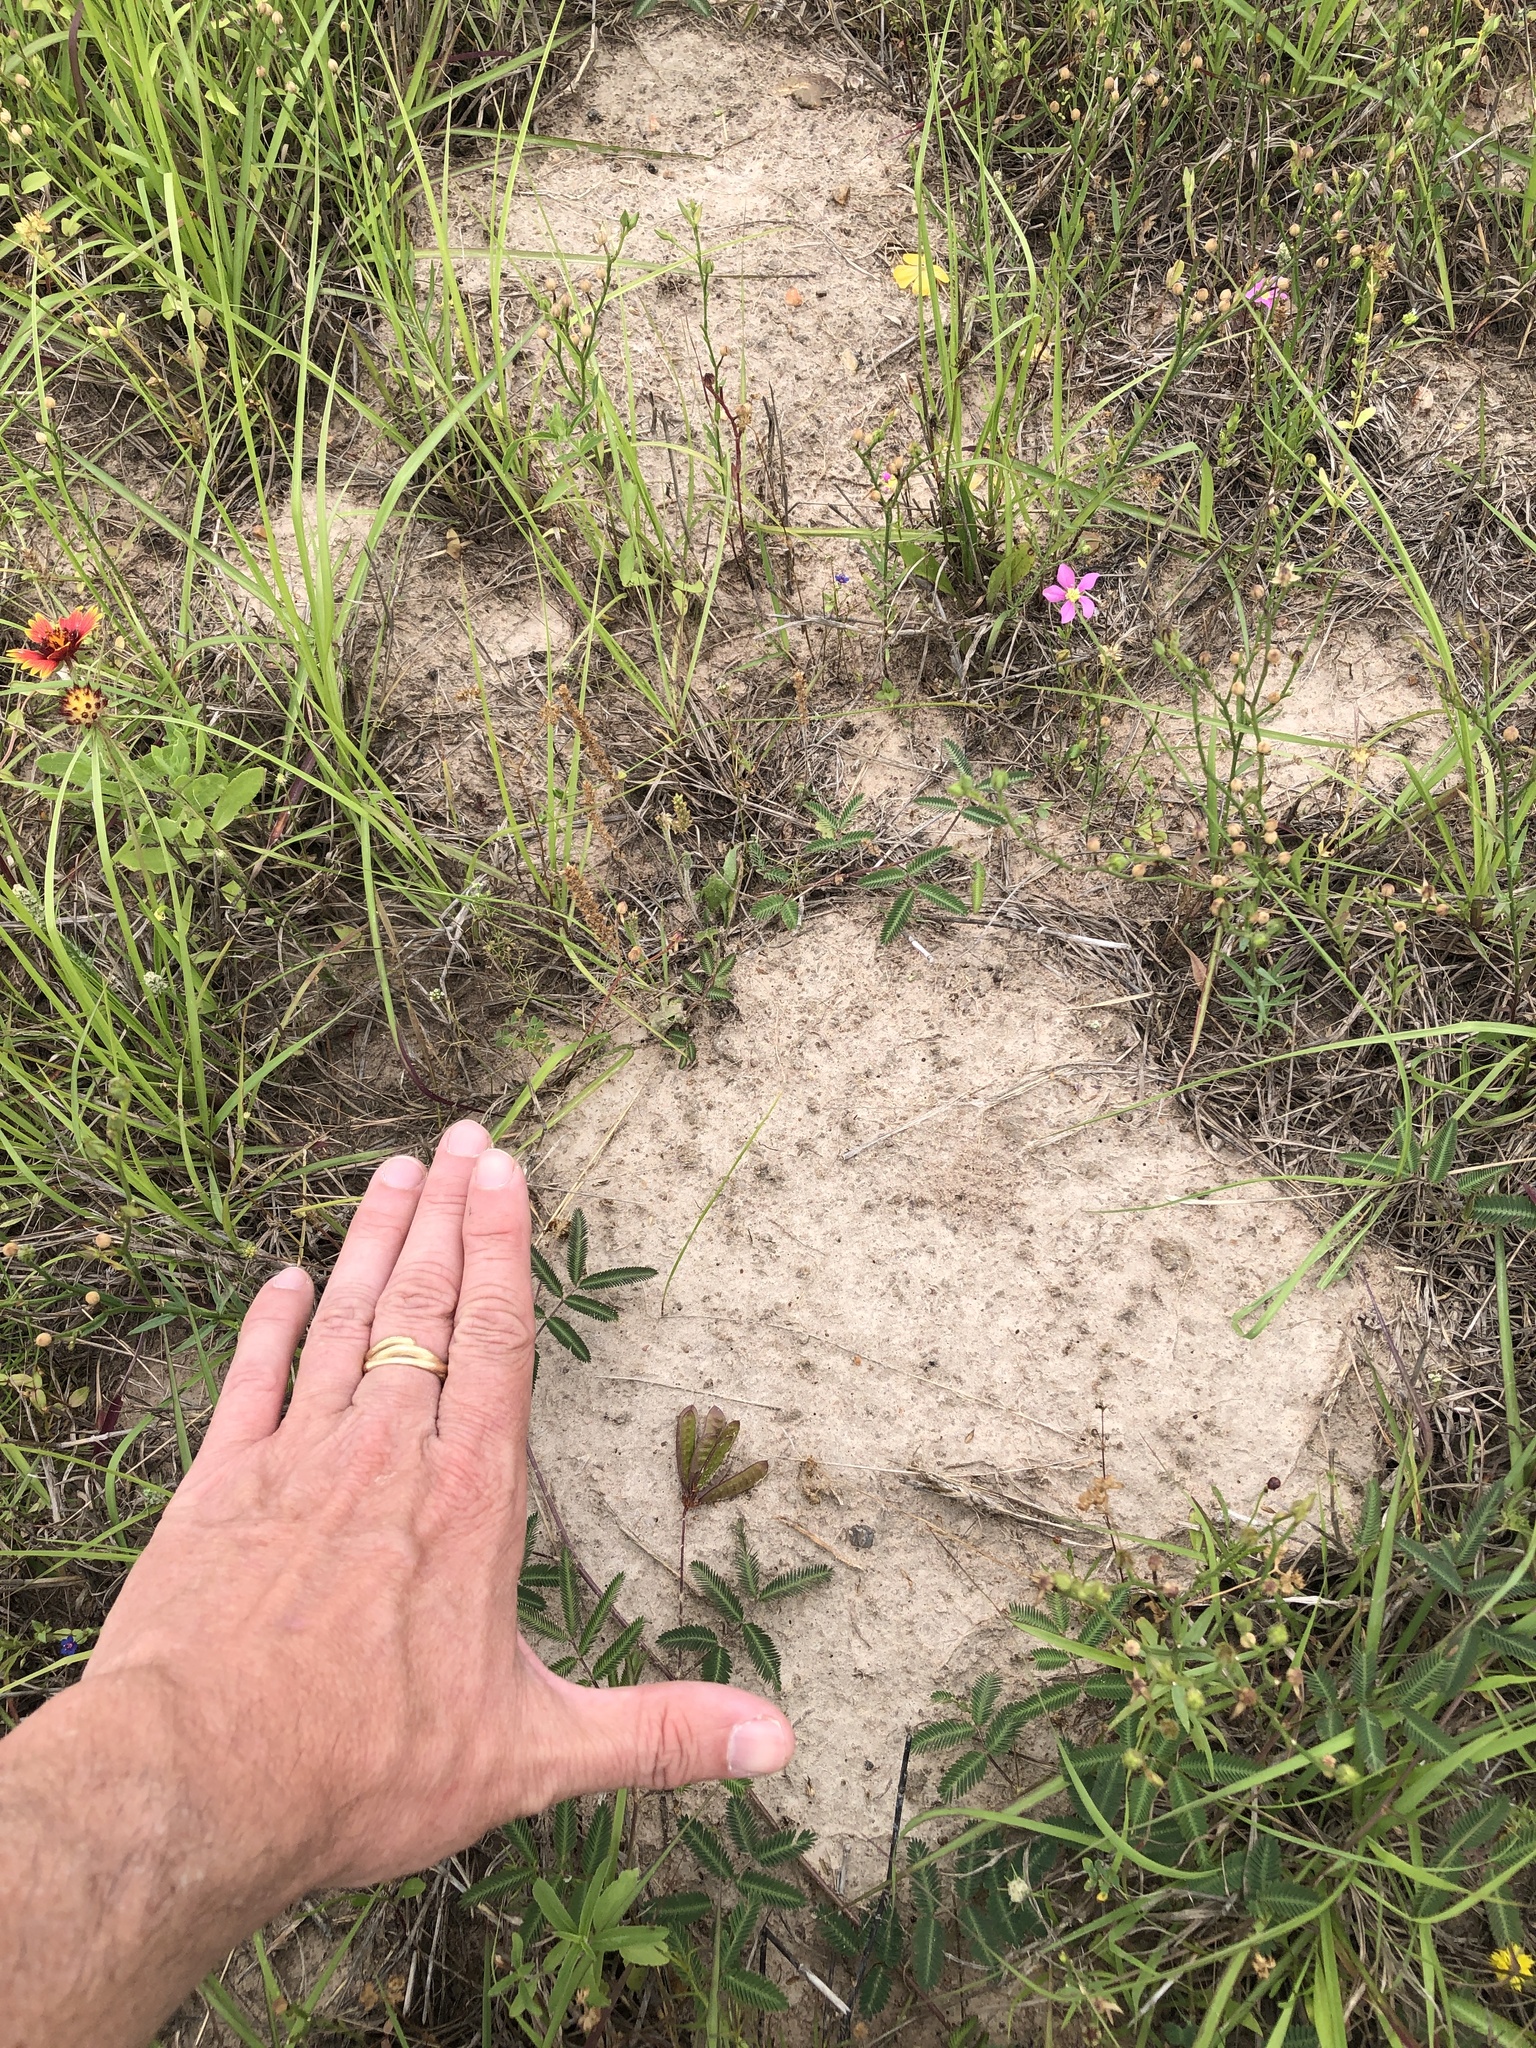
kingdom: Animalia
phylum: Chordata
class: Mammalia
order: Rodentia
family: Geomyidae
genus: Geomys
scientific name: Geomys attwateri
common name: Attwater's pocket gopher
